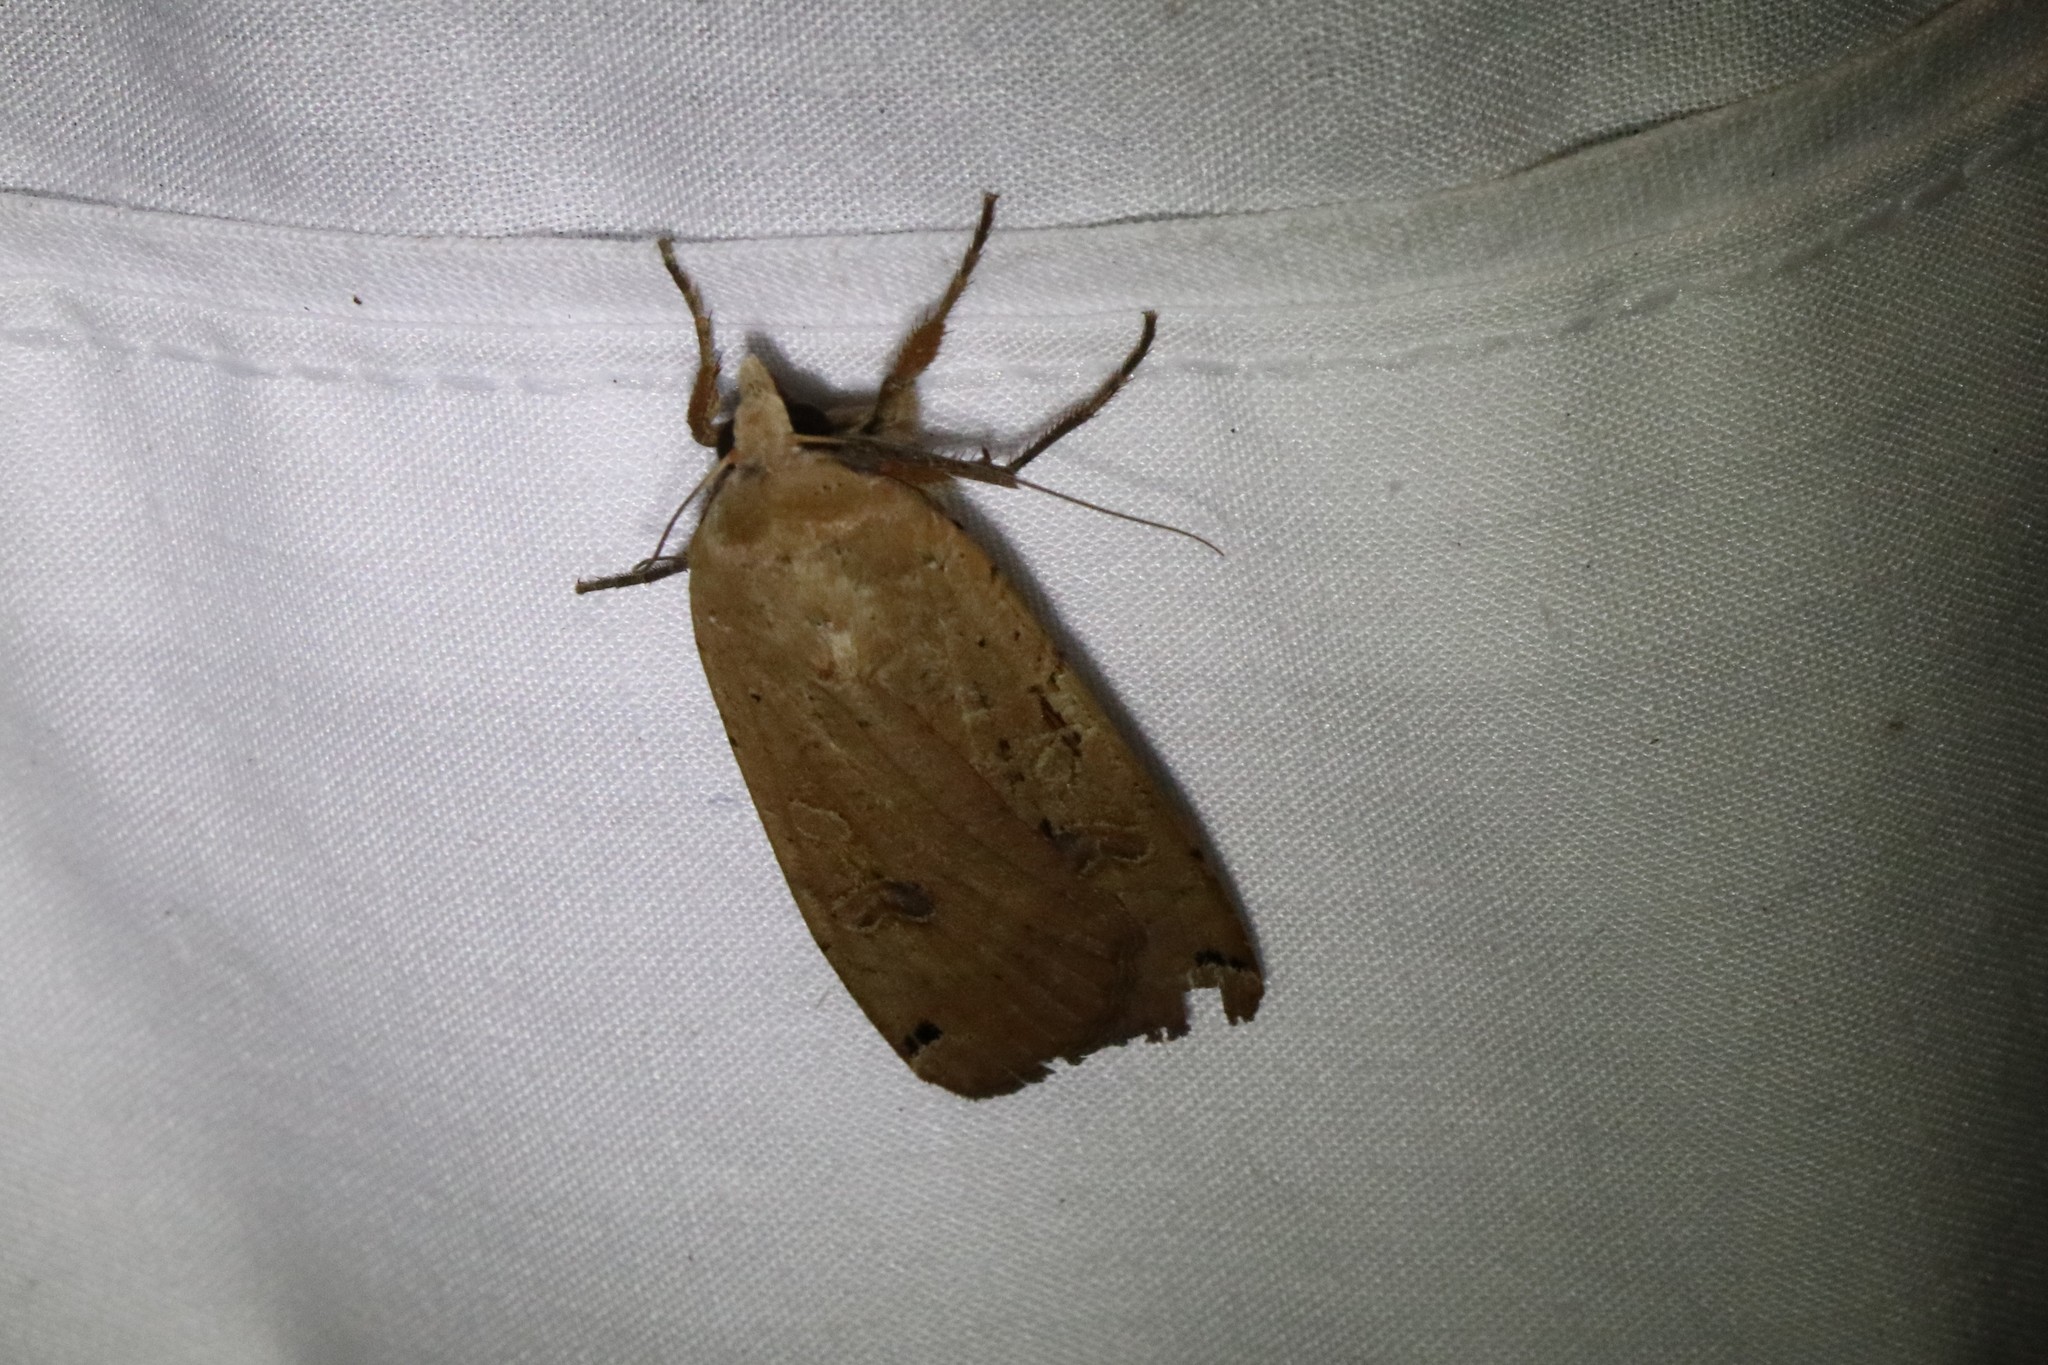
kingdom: Animalia
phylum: Arthropoda
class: Insecta
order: Lepidoptera
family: Noctuidae
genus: Noctua
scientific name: Noctua pronuba
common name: Large yellow underwing
